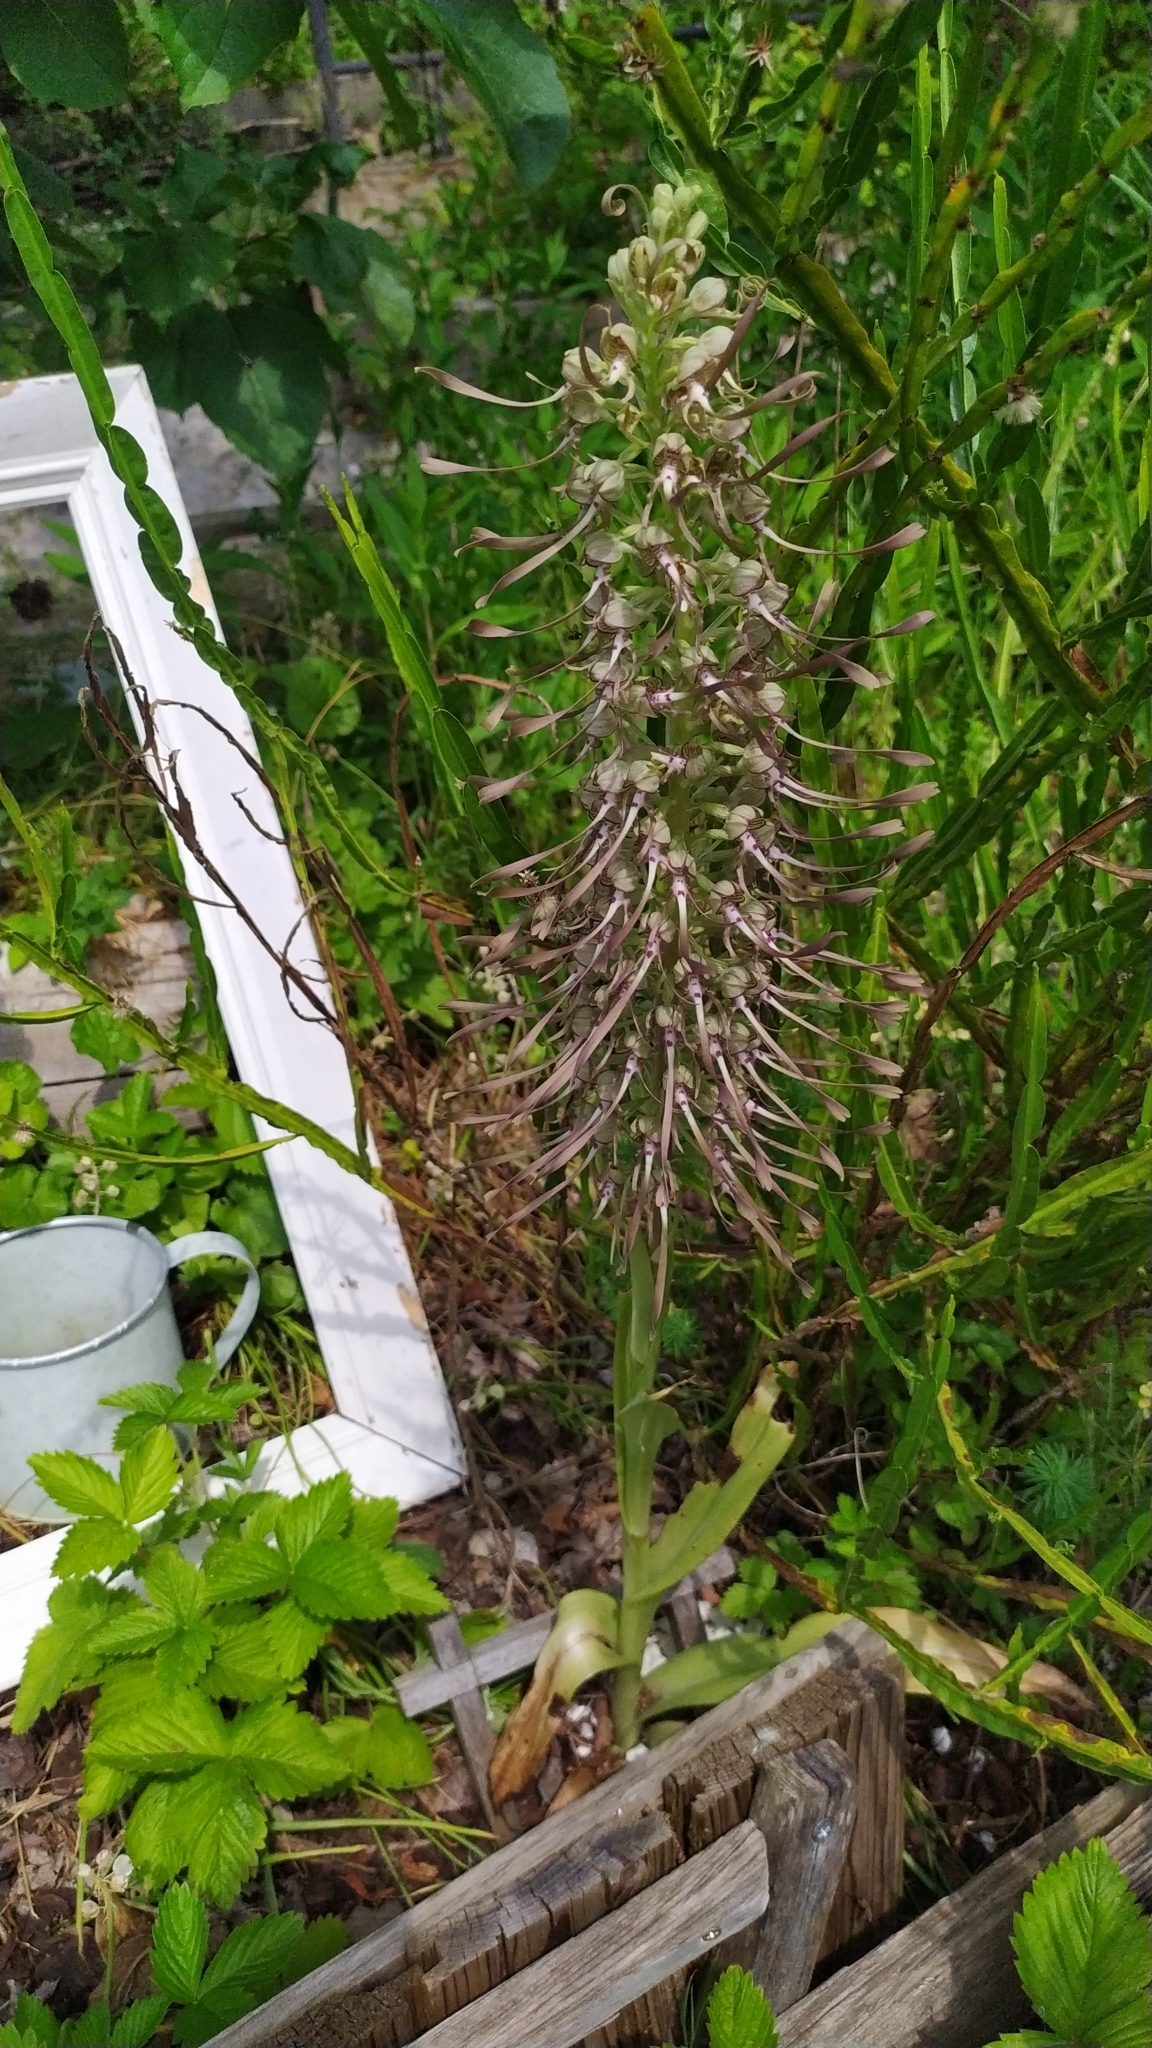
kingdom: Plantae
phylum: Tracheophyta
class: Liliopsida
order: Asparagales
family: Orchidaceae
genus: Himantoglossum
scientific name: Himantoglossum hircinum
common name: Lizard orchid
